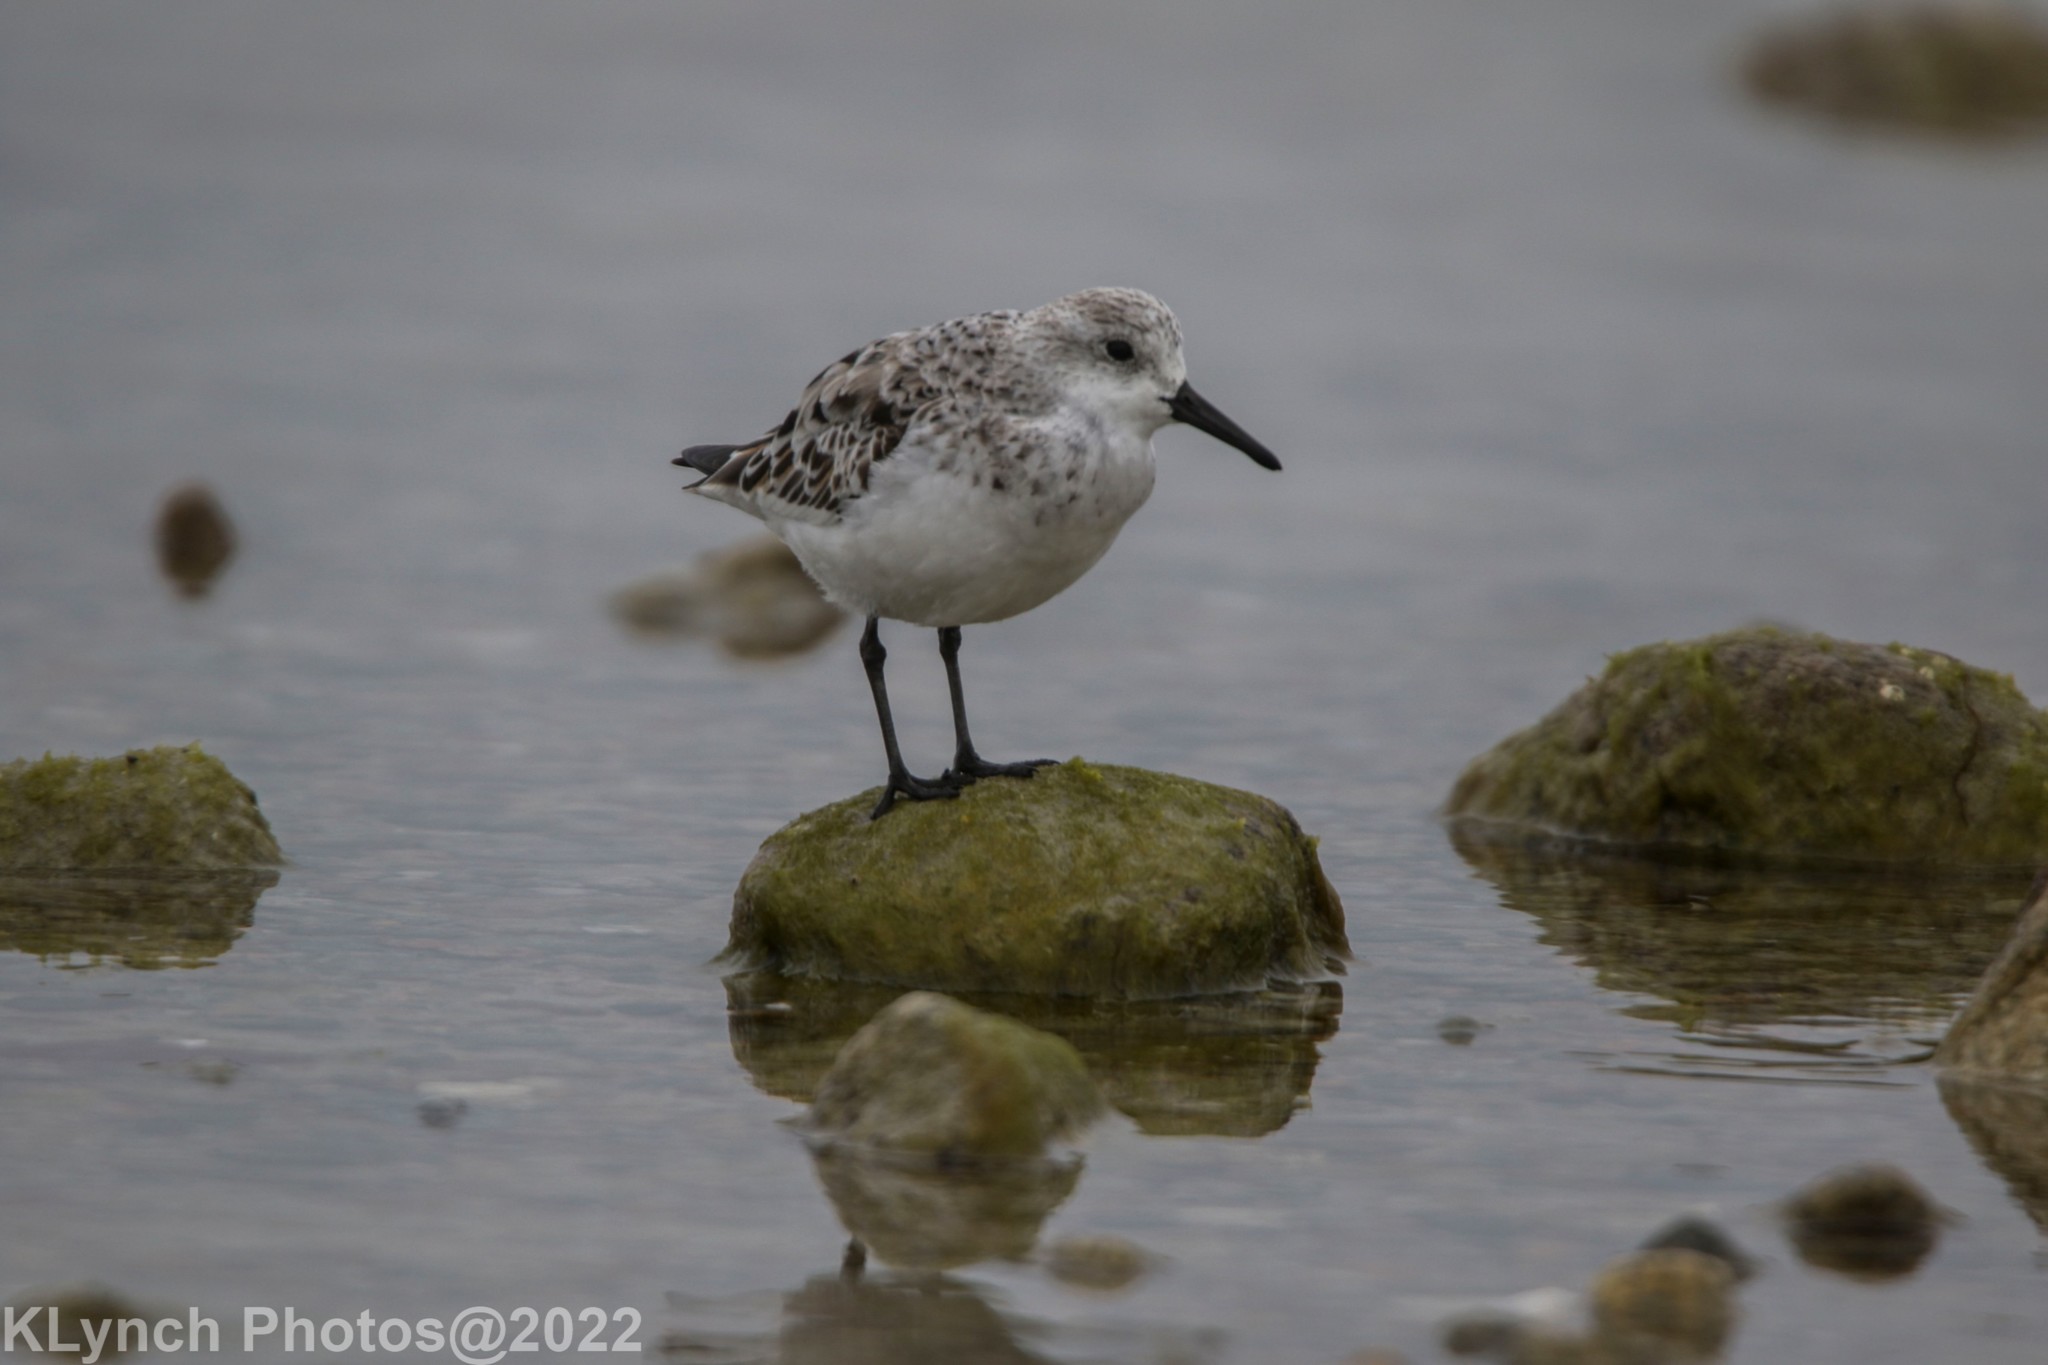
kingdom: Animalia
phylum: Chordata
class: Aves
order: Charadriiformes
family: Scolopacidae
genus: Calidris
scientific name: Calidris alba
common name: Sanderling
